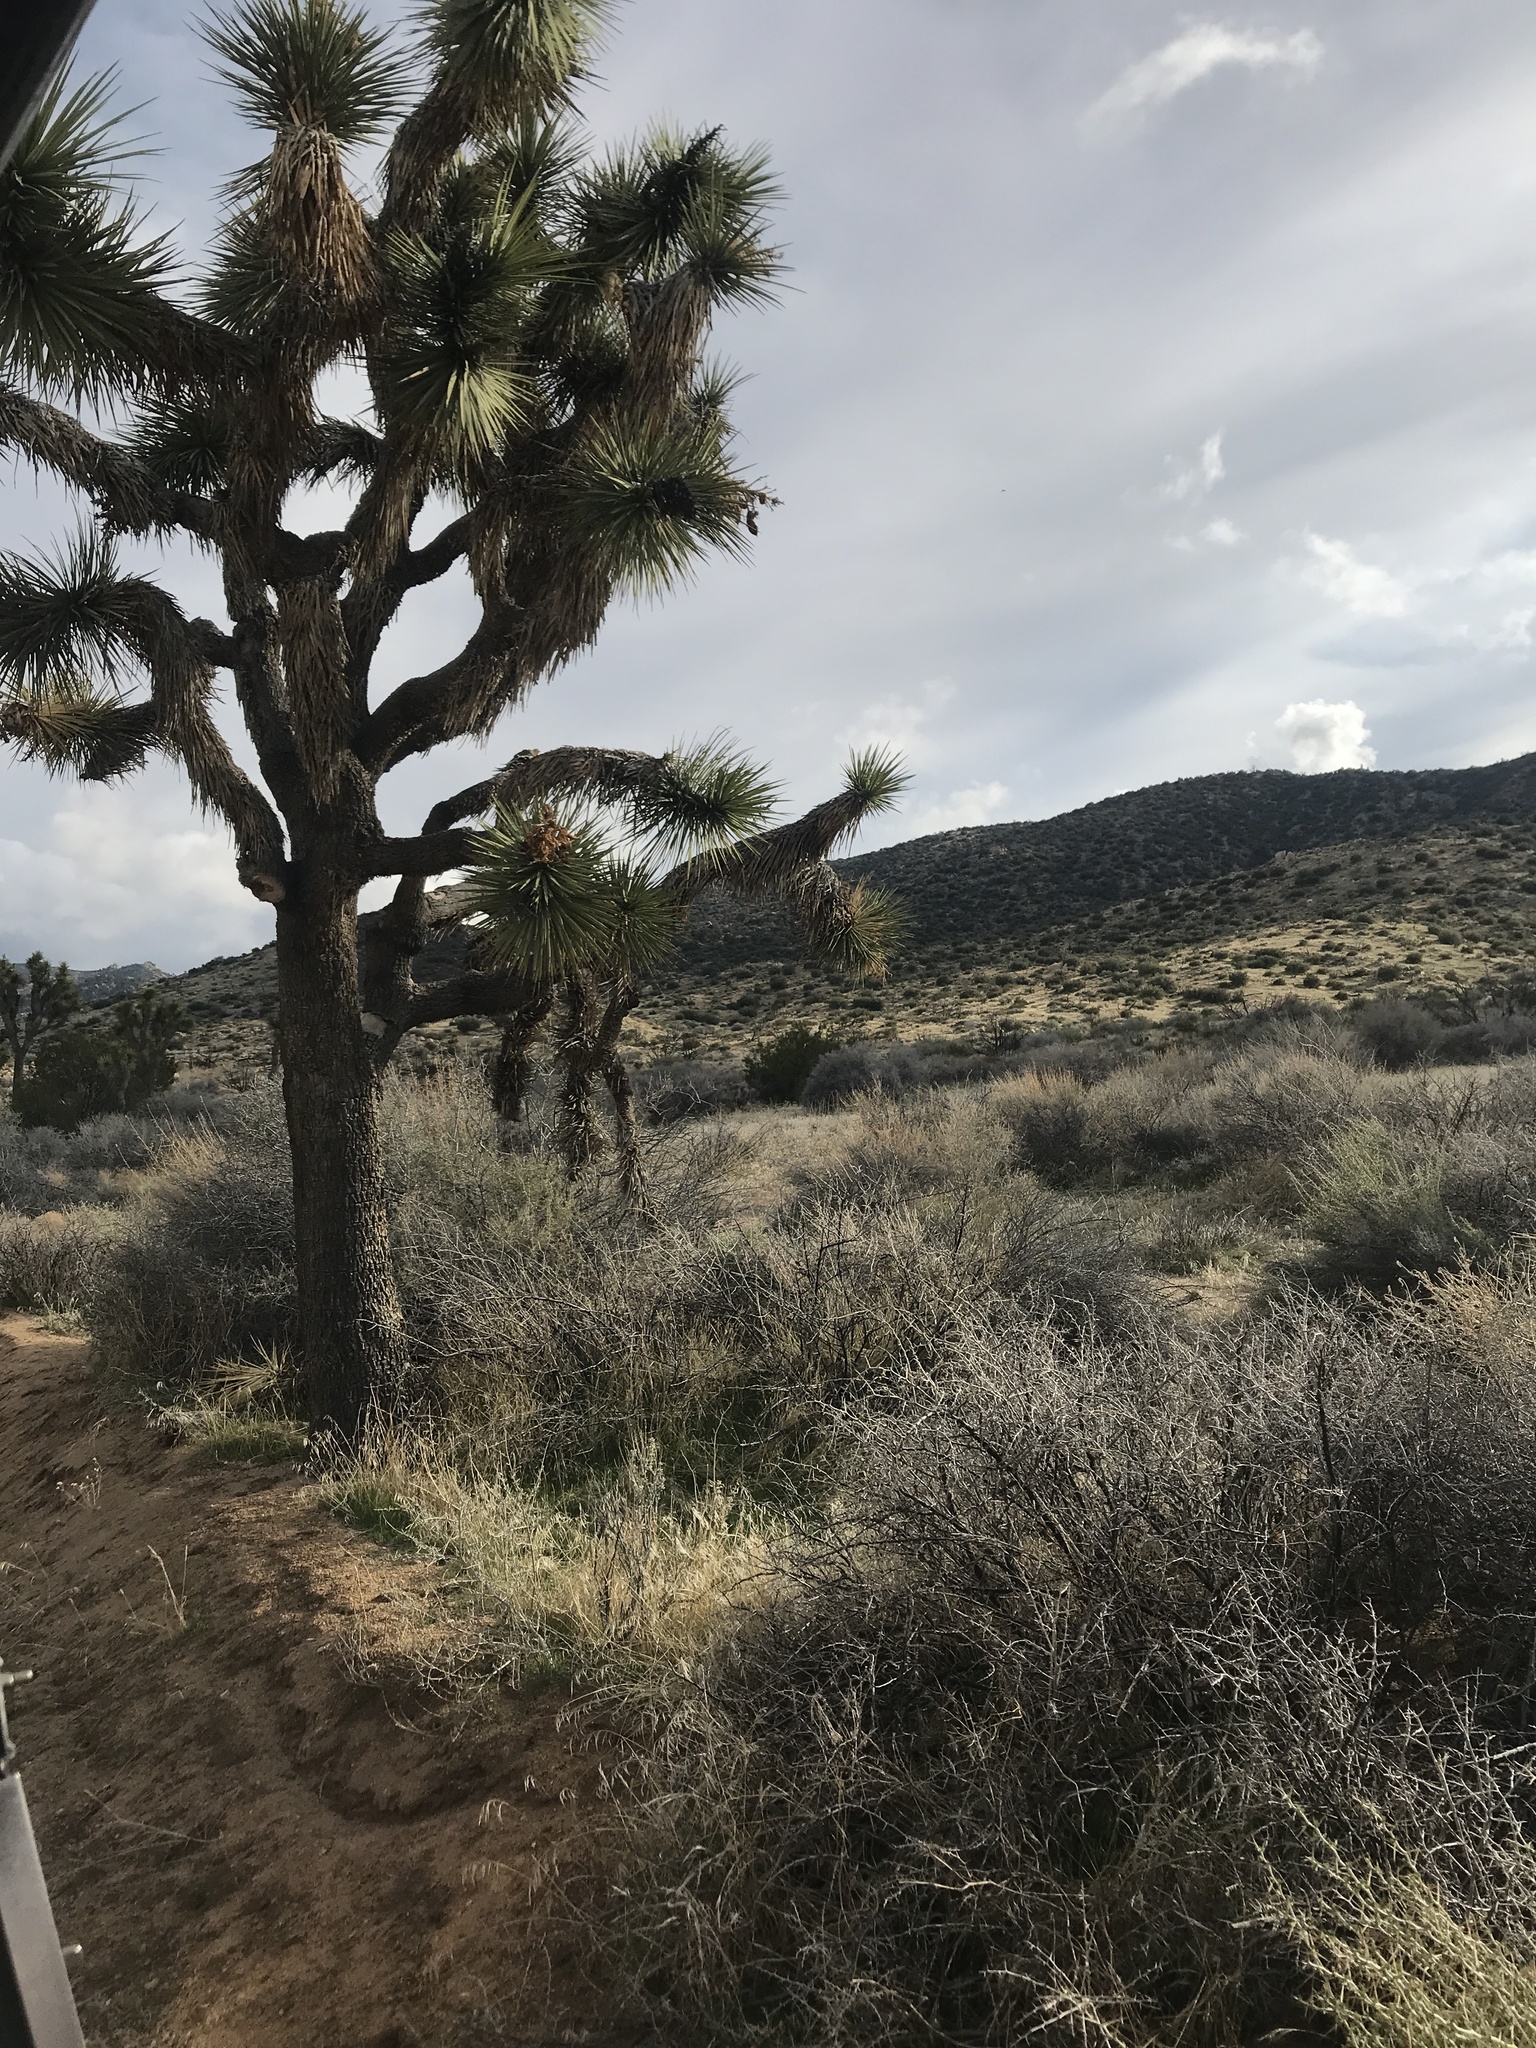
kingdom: Plantae
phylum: Tracheophyta
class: Liliopsida
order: Asparagales
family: Asparagaceae
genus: Yucca
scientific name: Yucca brevifolia
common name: Joshua tree
